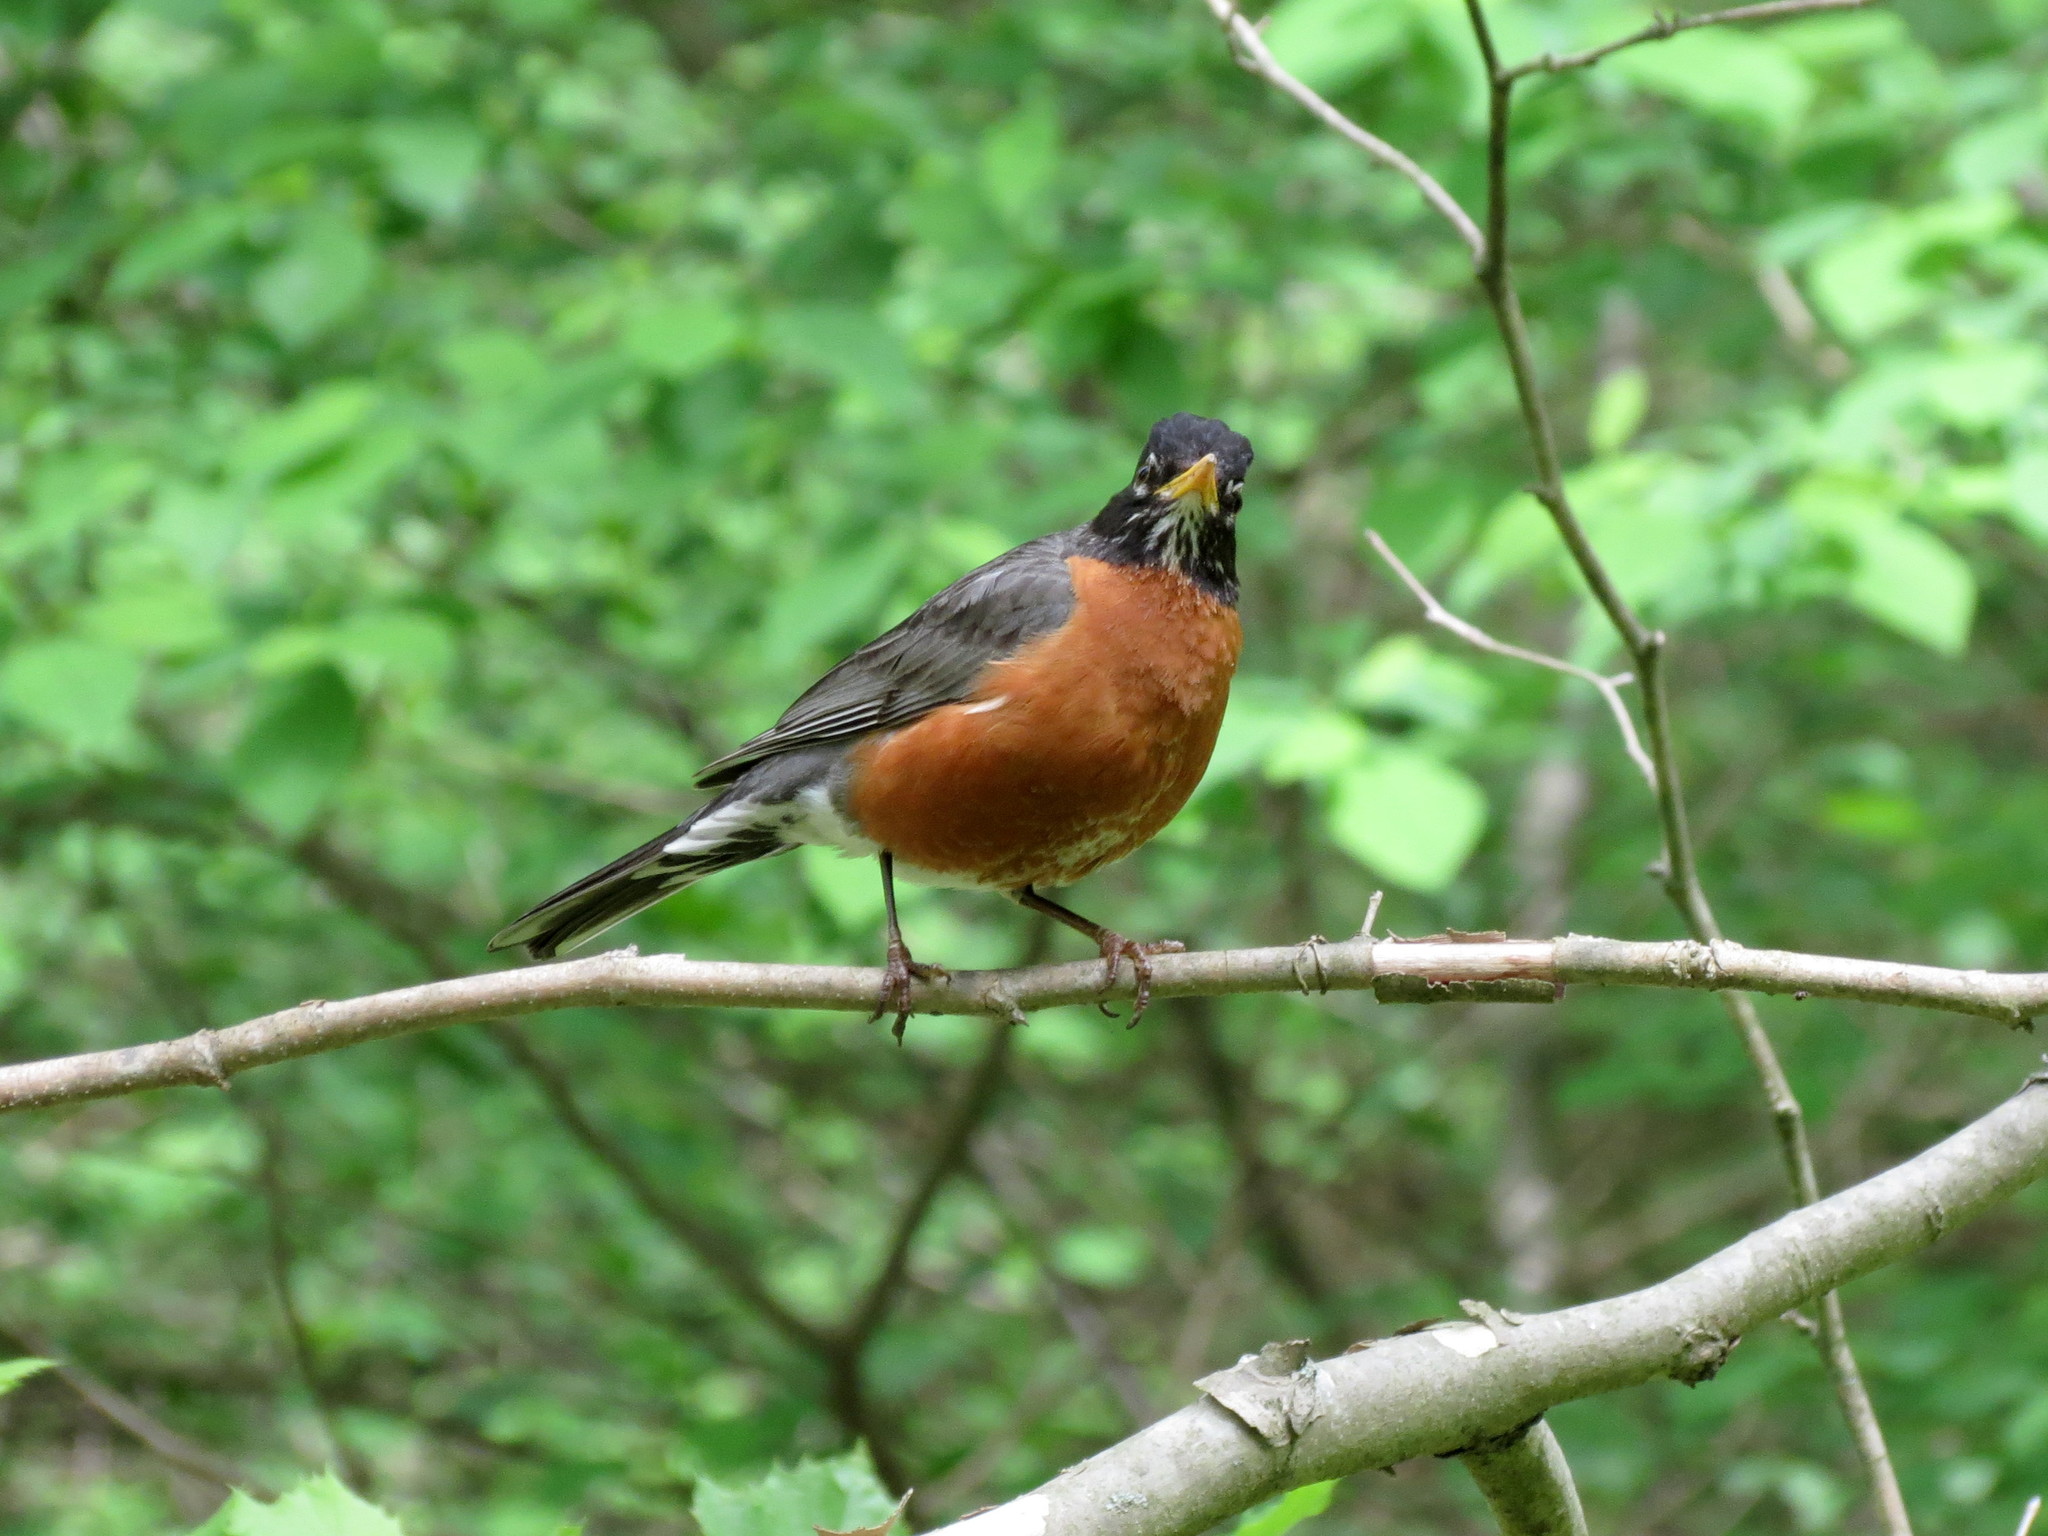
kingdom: Animalia
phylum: Chordata
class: Aves
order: Passeriformes
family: Turdidae
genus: Turdus
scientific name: Turdus migratorius
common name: American robin
